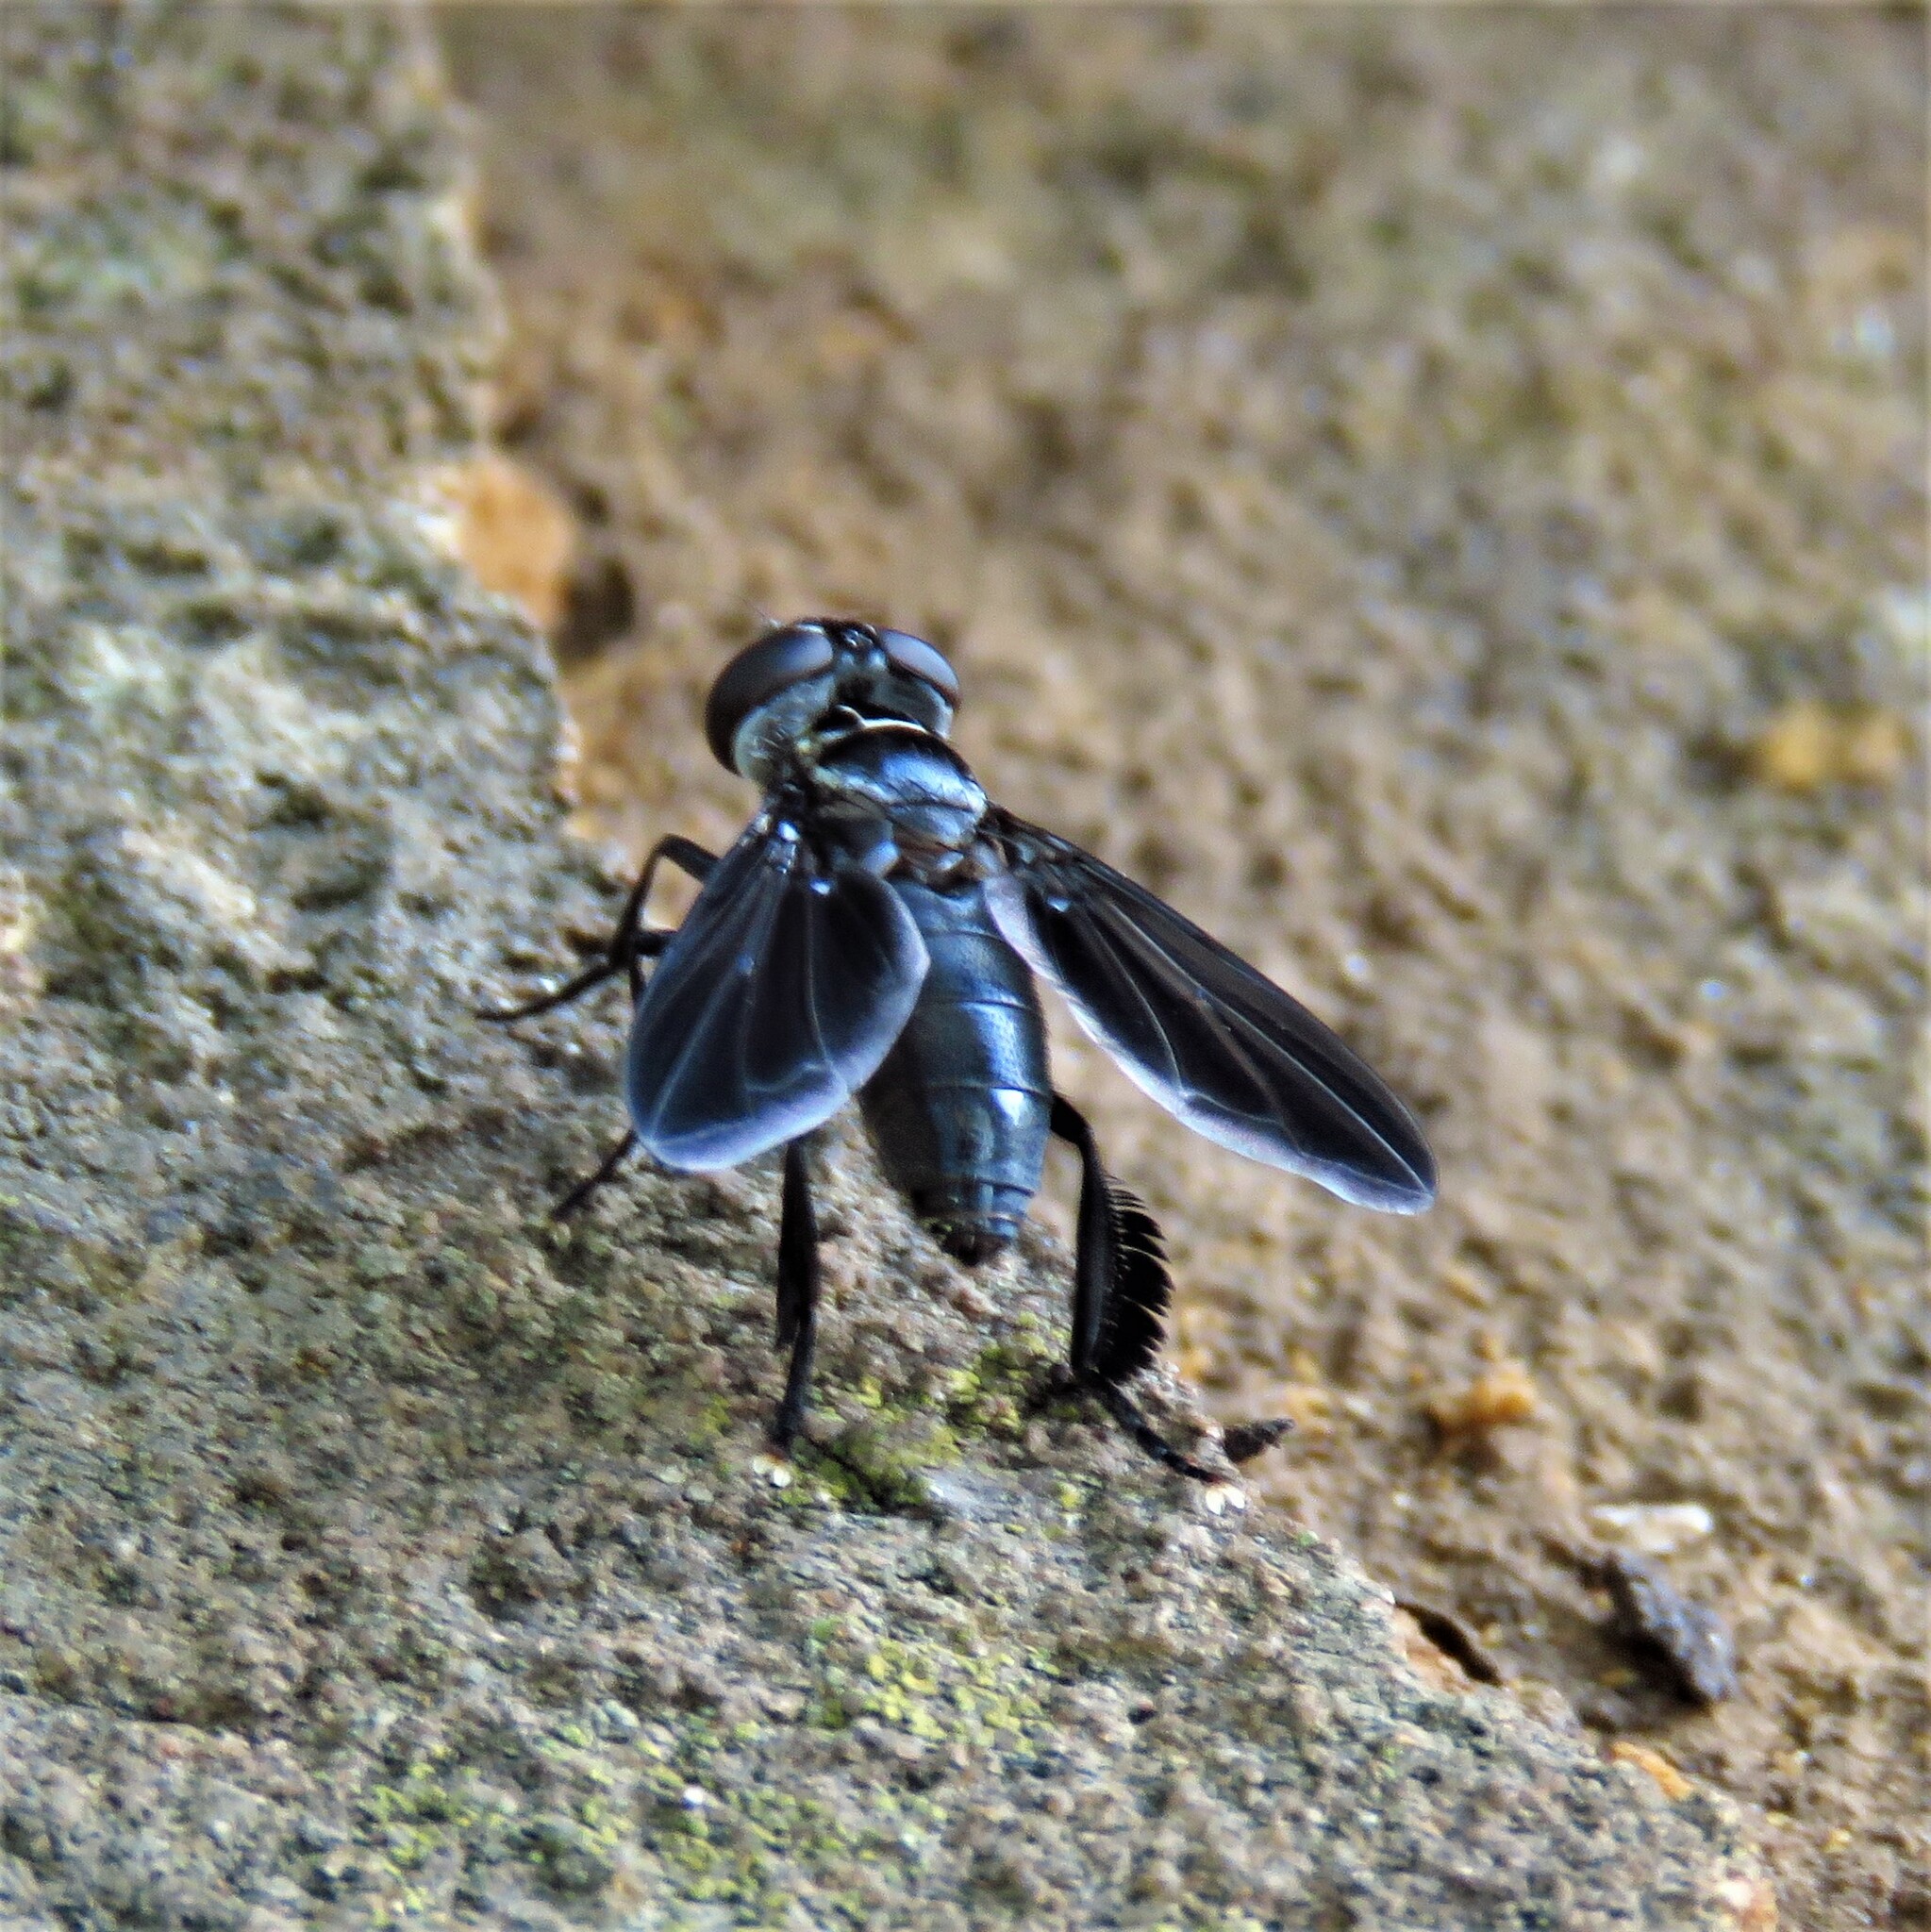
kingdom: Animalia
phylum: Arthropoda
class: Insecta
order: Diptera
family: Tachinidae
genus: Trichopoda
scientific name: Trichopoda lanipes
